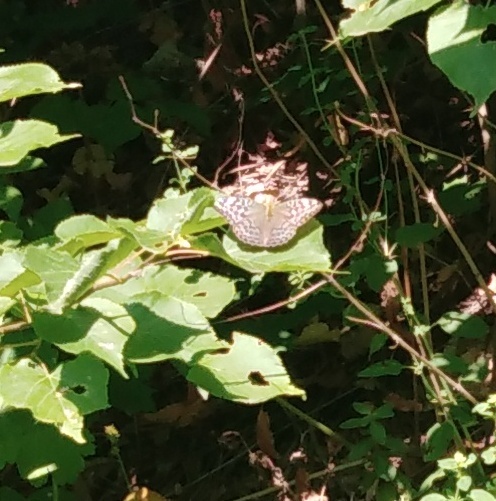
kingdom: Animalia
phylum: Arthropoda
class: Insecta
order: Lepidoptera
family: Nymphalidae
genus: Argynnis
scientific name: Argynnis paphia
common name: Silver-washed fritillary
